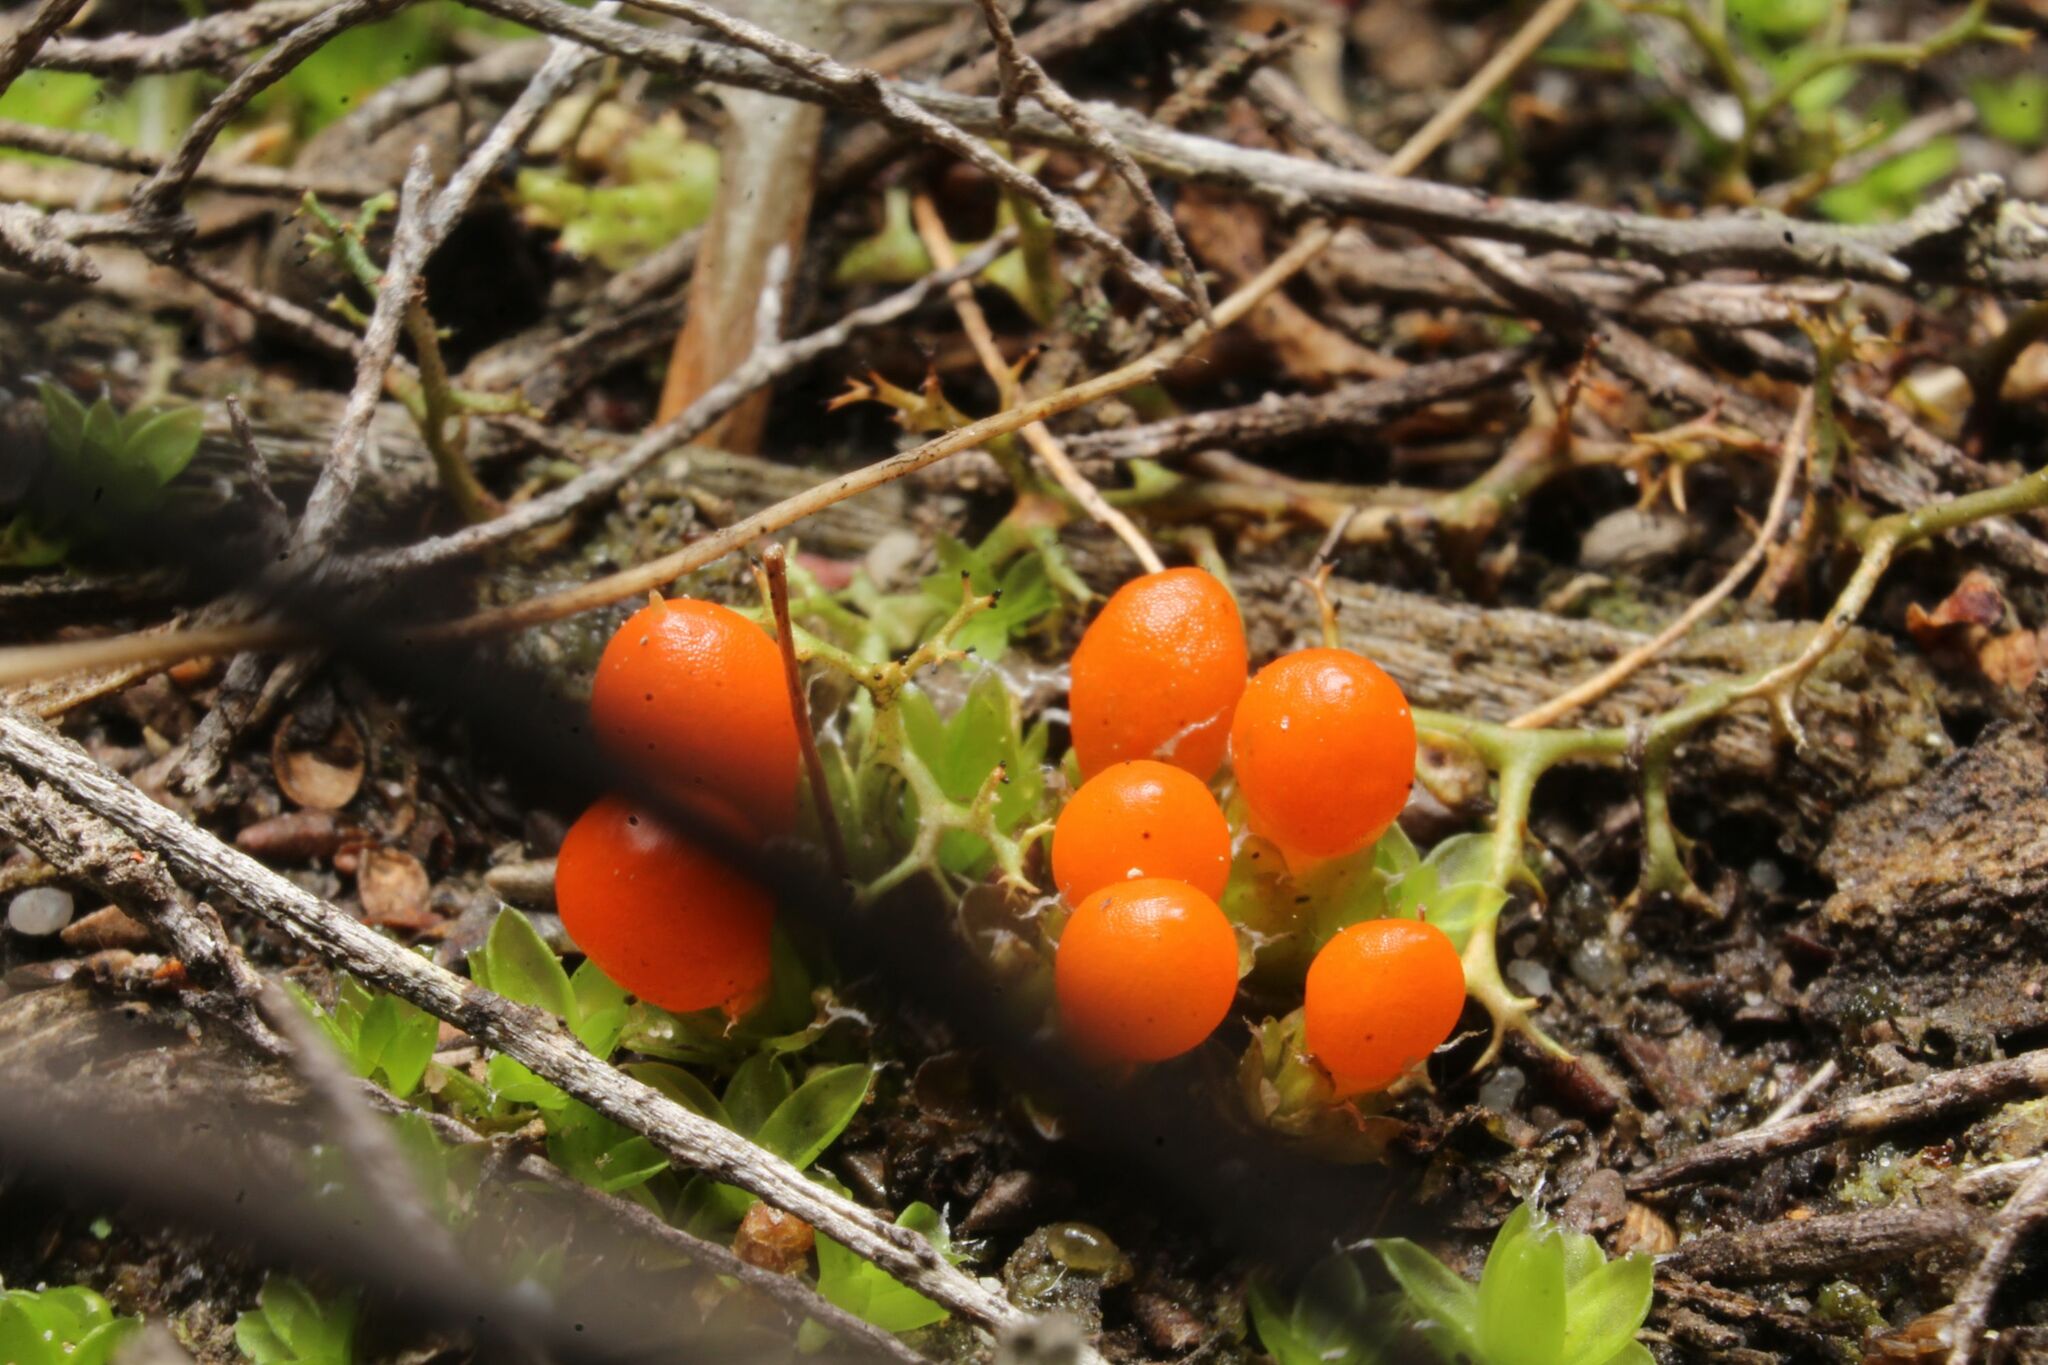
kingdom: Plantae
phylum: Bryophyta
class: Bryopsida
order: Pottiales
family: Pleurophascaceae
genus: Pleurophascum
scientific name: Pleurophascum occidentale
